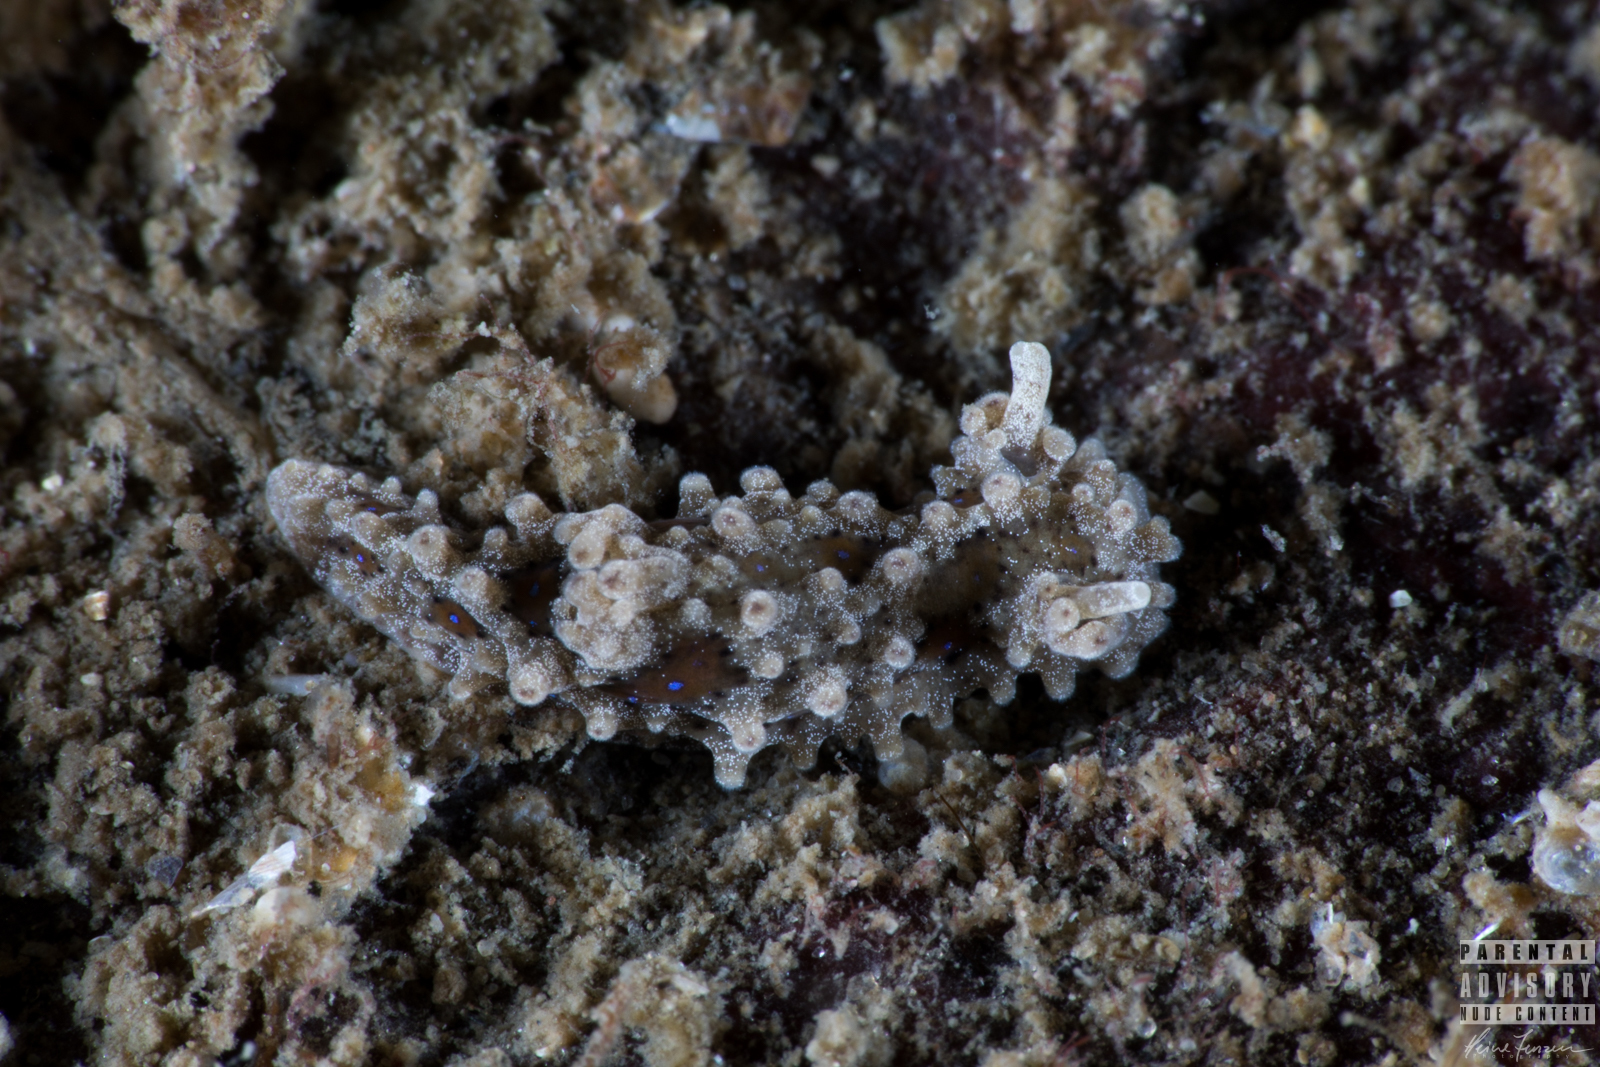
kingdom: Animalia
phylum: Mollusca
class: Gastropoda
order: Nudibranchia
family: Aegiridae
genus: Aegires
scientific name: Aegires punctilucens
